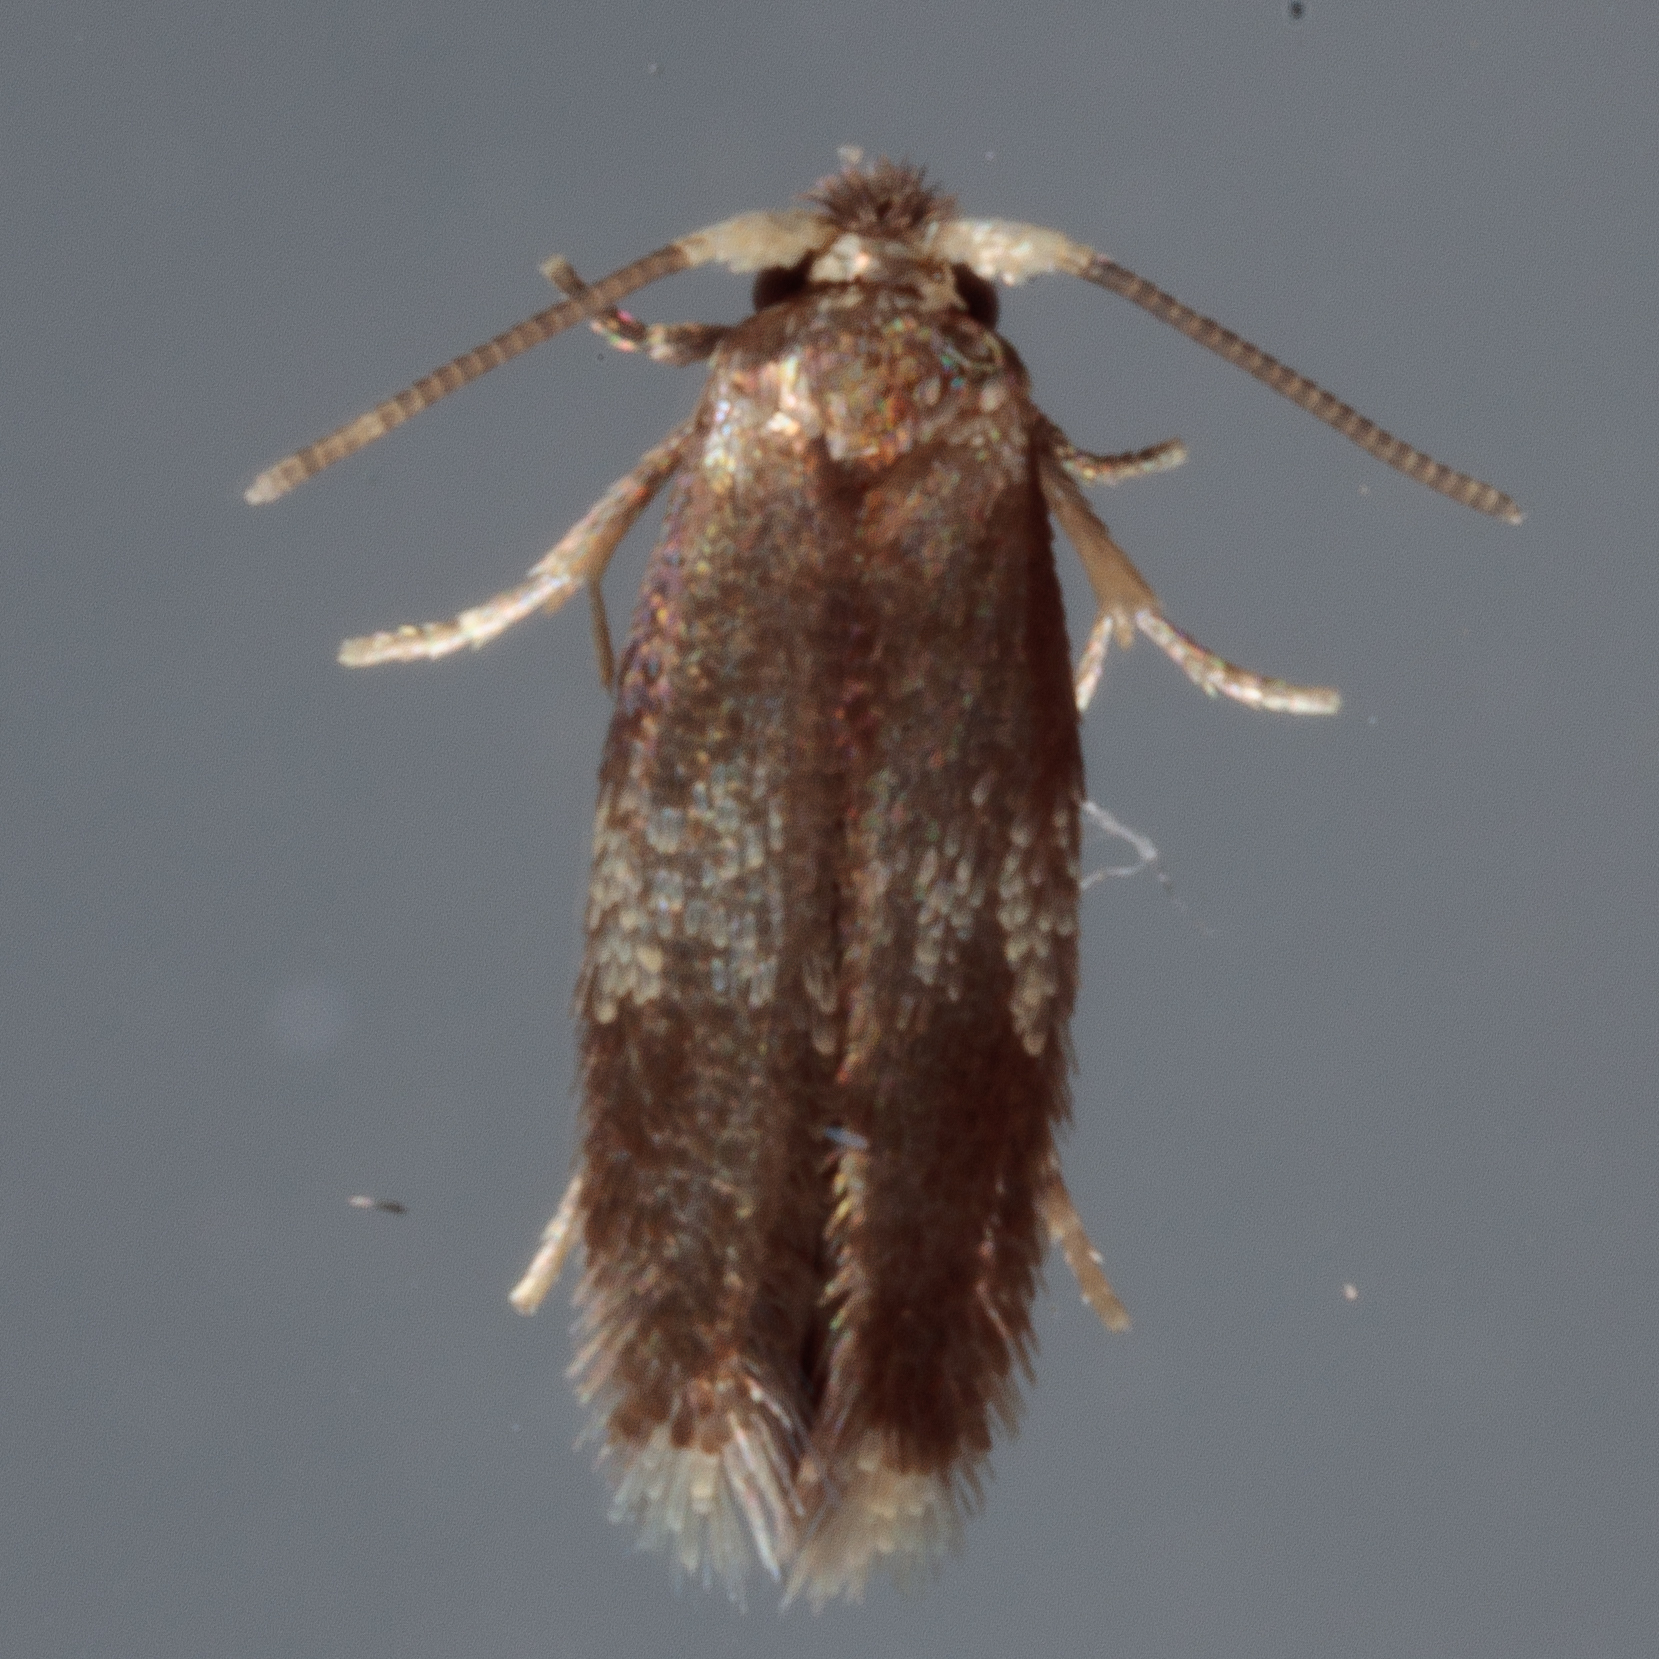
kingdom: Animalia
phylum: Arthropoda
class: Insecta
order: Lepidoptera
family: Nepticulidae
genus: Stigmella
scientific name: Stigmella nigriverticella
